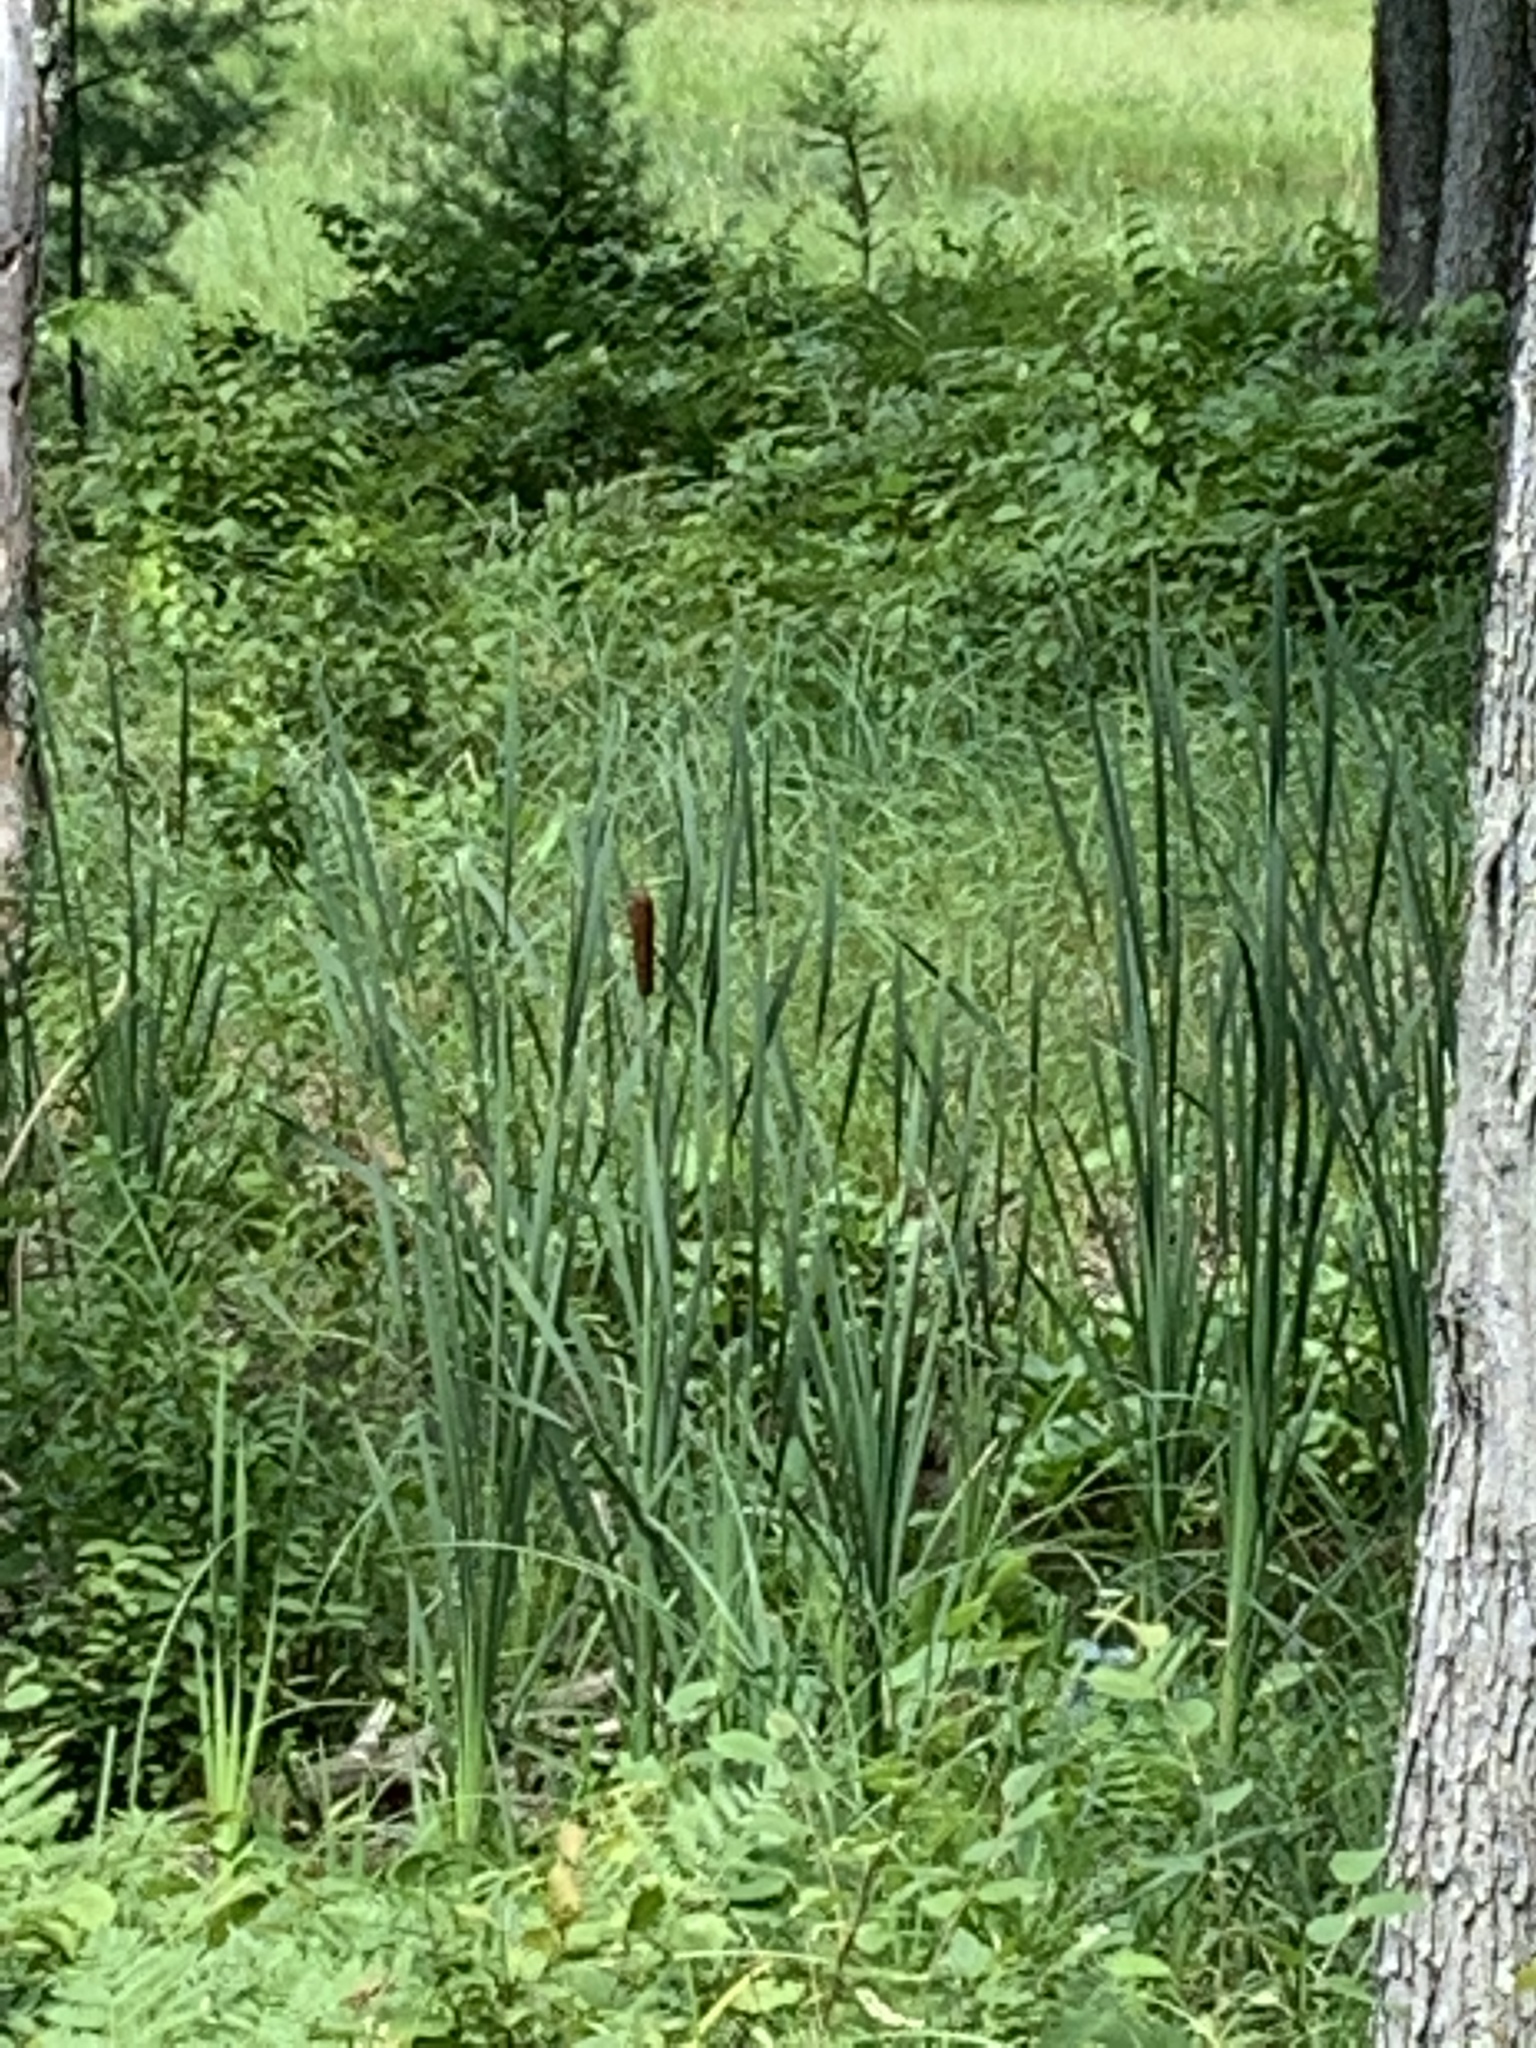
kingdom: Plantae
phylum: Tracheophyta
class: Liliopsida
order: Poales
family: Typhaceae
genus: Typha
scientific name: Typha latifolia
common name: Broadleaf cattail
